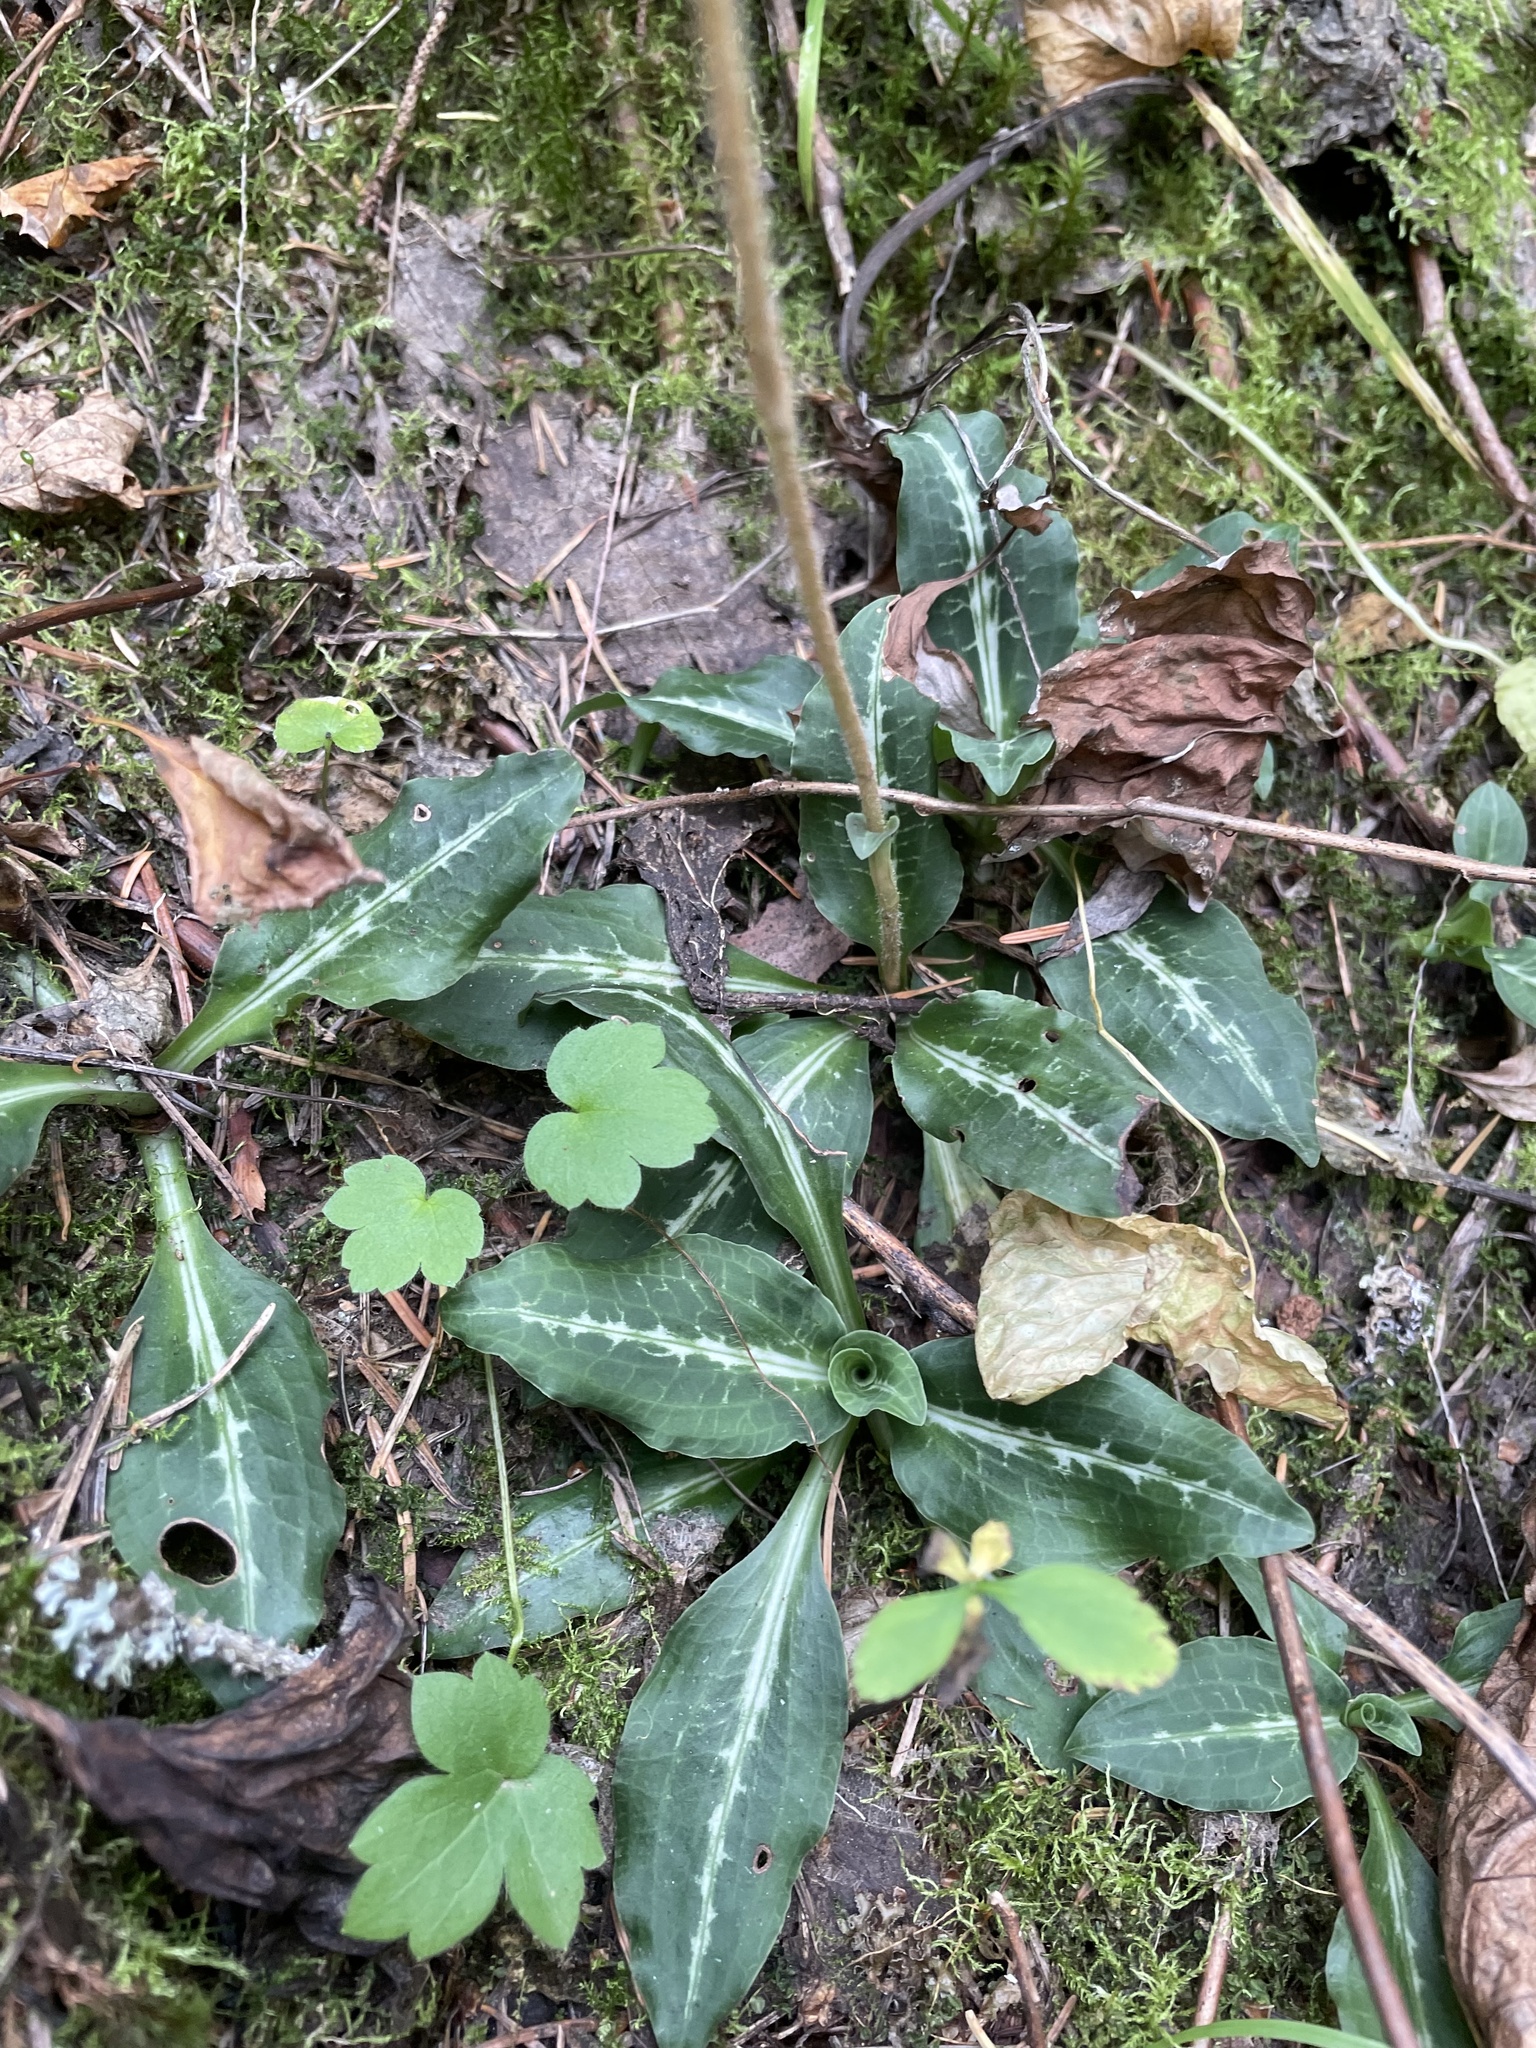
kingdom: Plantae
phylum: Tracheophyta
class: Liliopsida
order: Asparagales
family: Orchidaceae
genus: Goodyera
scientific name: Goodyera oblongifolia
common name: Giant rattlesnake-plantain
